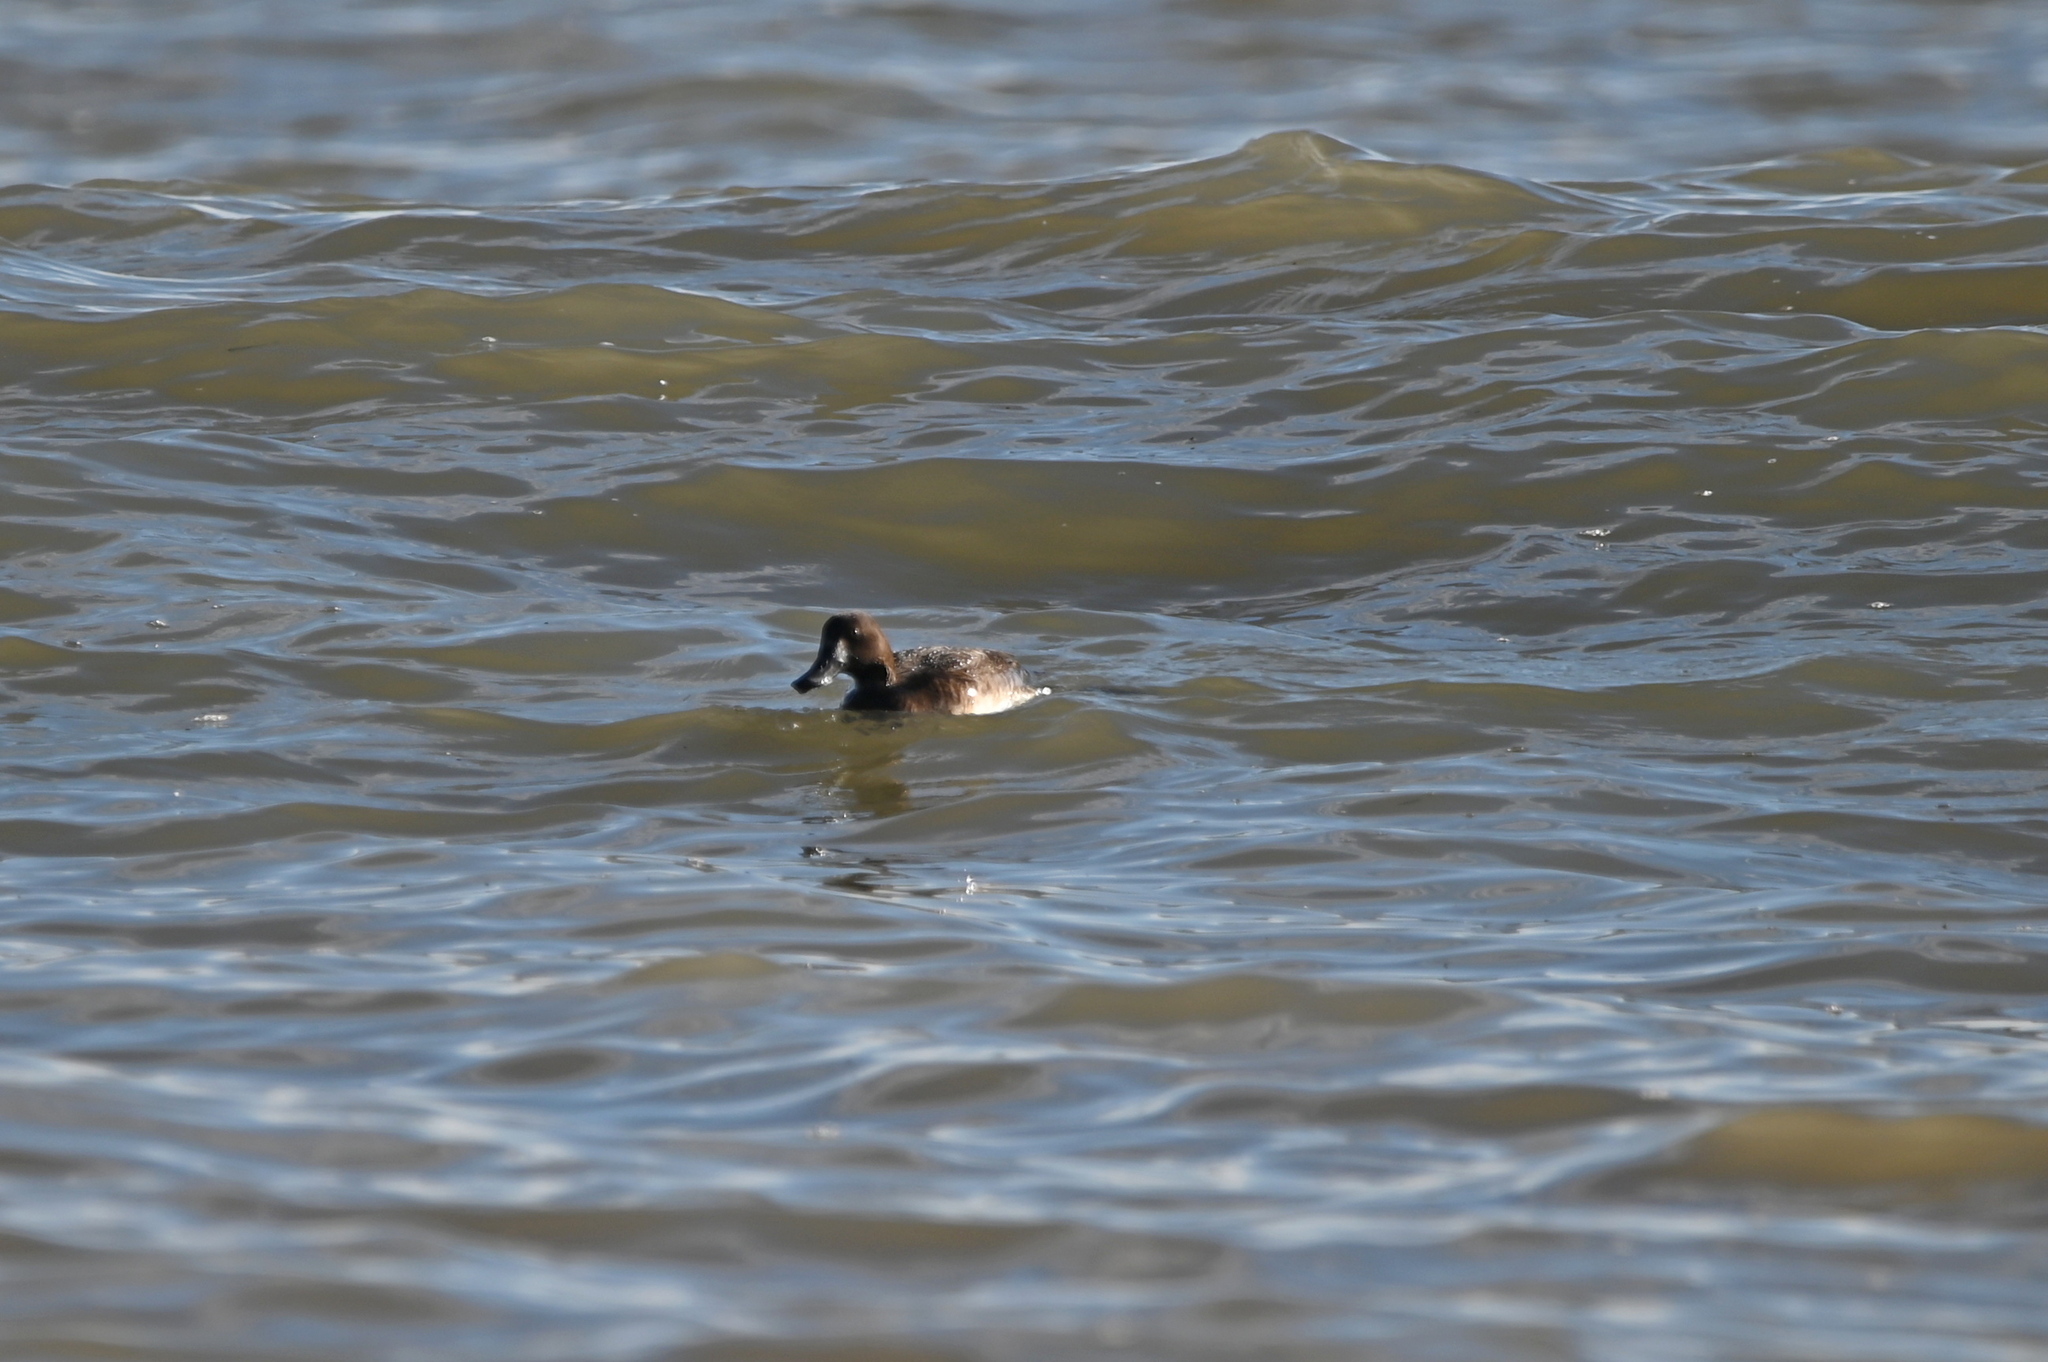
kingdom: Animalia
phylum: Chordata
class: Aves
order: Anseriformes
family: Anatidae
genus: Aythya
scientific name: Aythya marila
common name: Greater scaup
